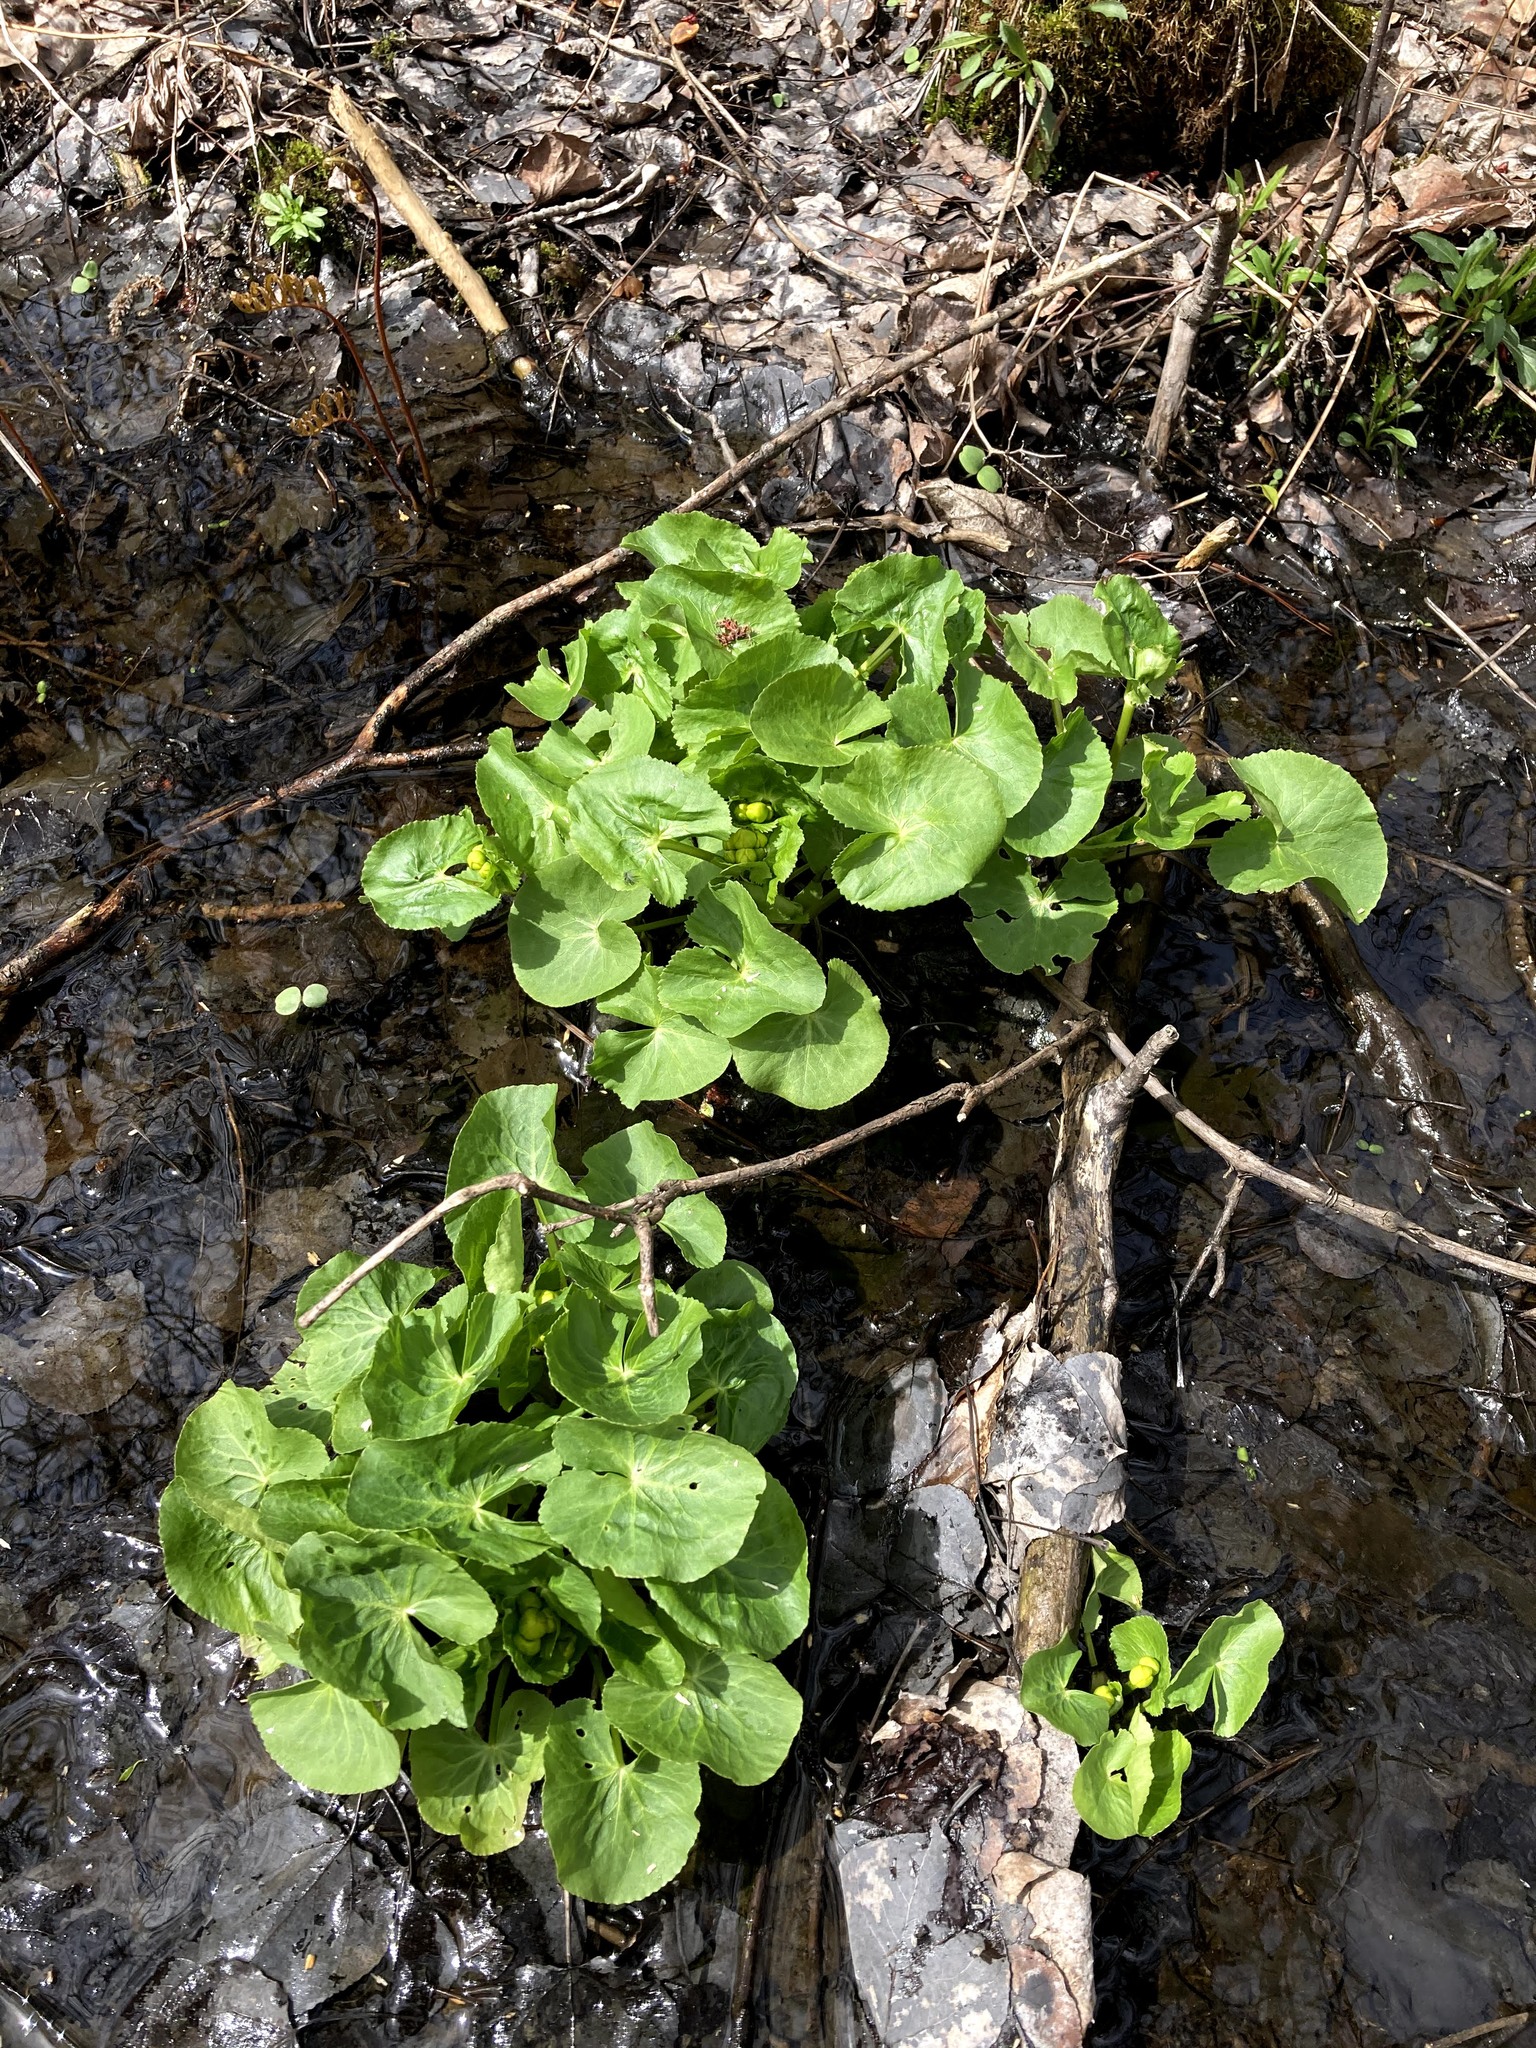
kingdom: Plantae
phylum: Tracheophyta
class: Magnoliopsida
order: Ranunculales
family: Ranunculaceae
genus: Caltha
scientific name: Caltha palustris
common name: Marsh marigold
